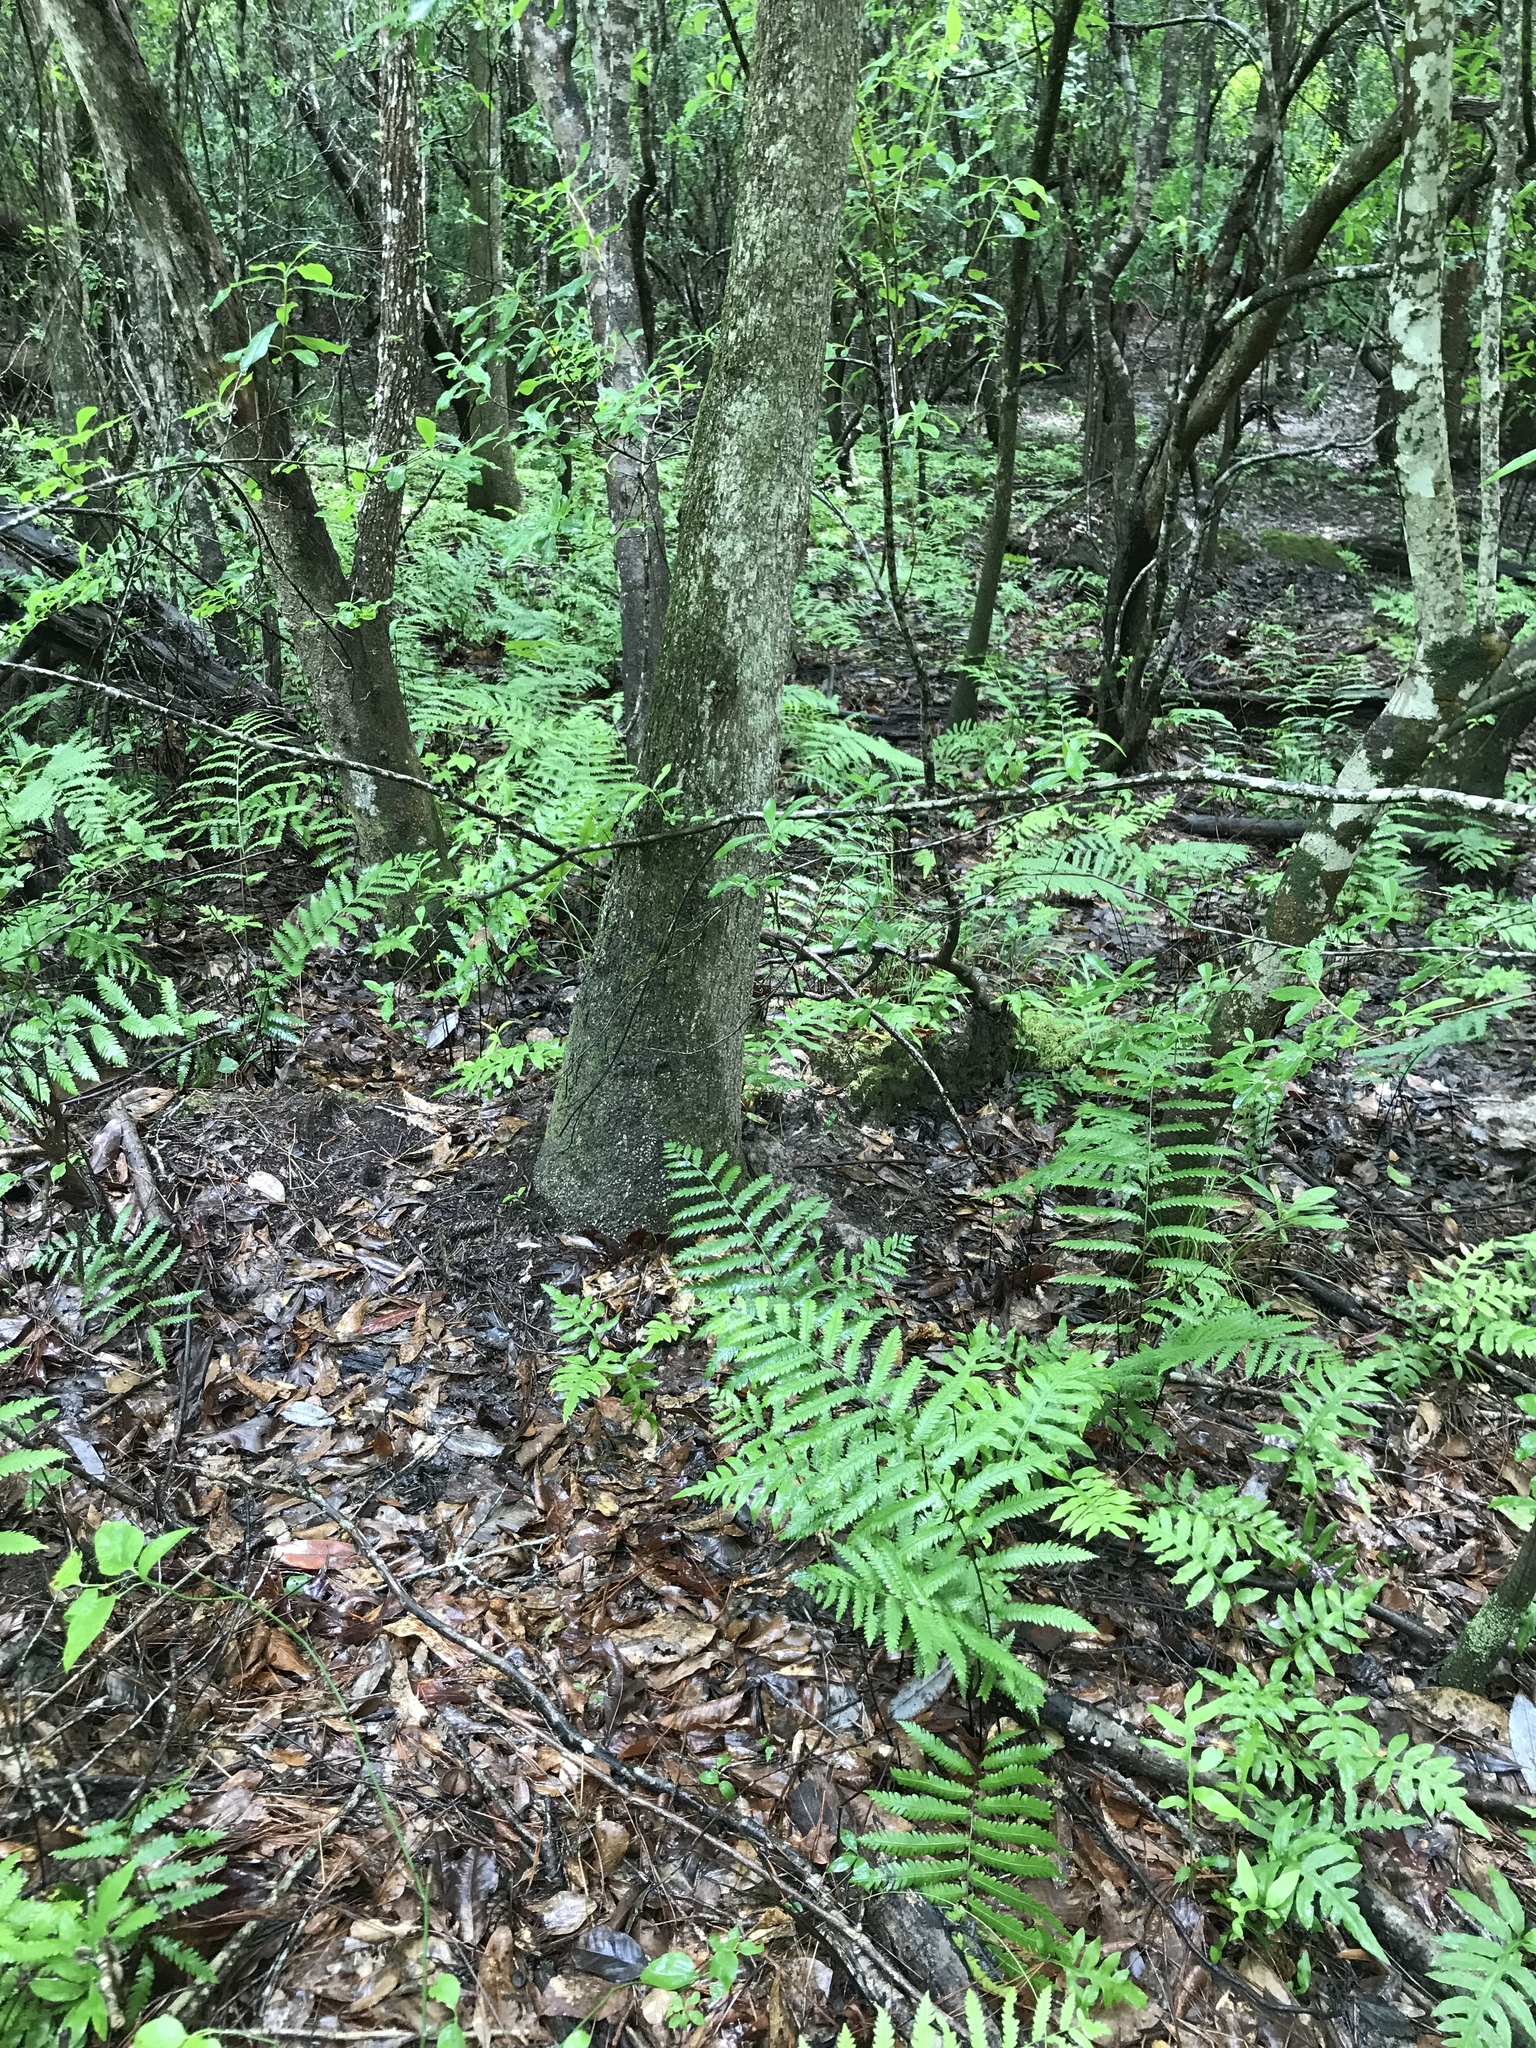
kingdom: Plantae
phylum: Tracheophyta
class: Polypodiopsida
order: Polypodiales
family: Blechnaceae
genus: Anchistea
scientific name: Anchistea virginica
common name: Virginia chain fern
